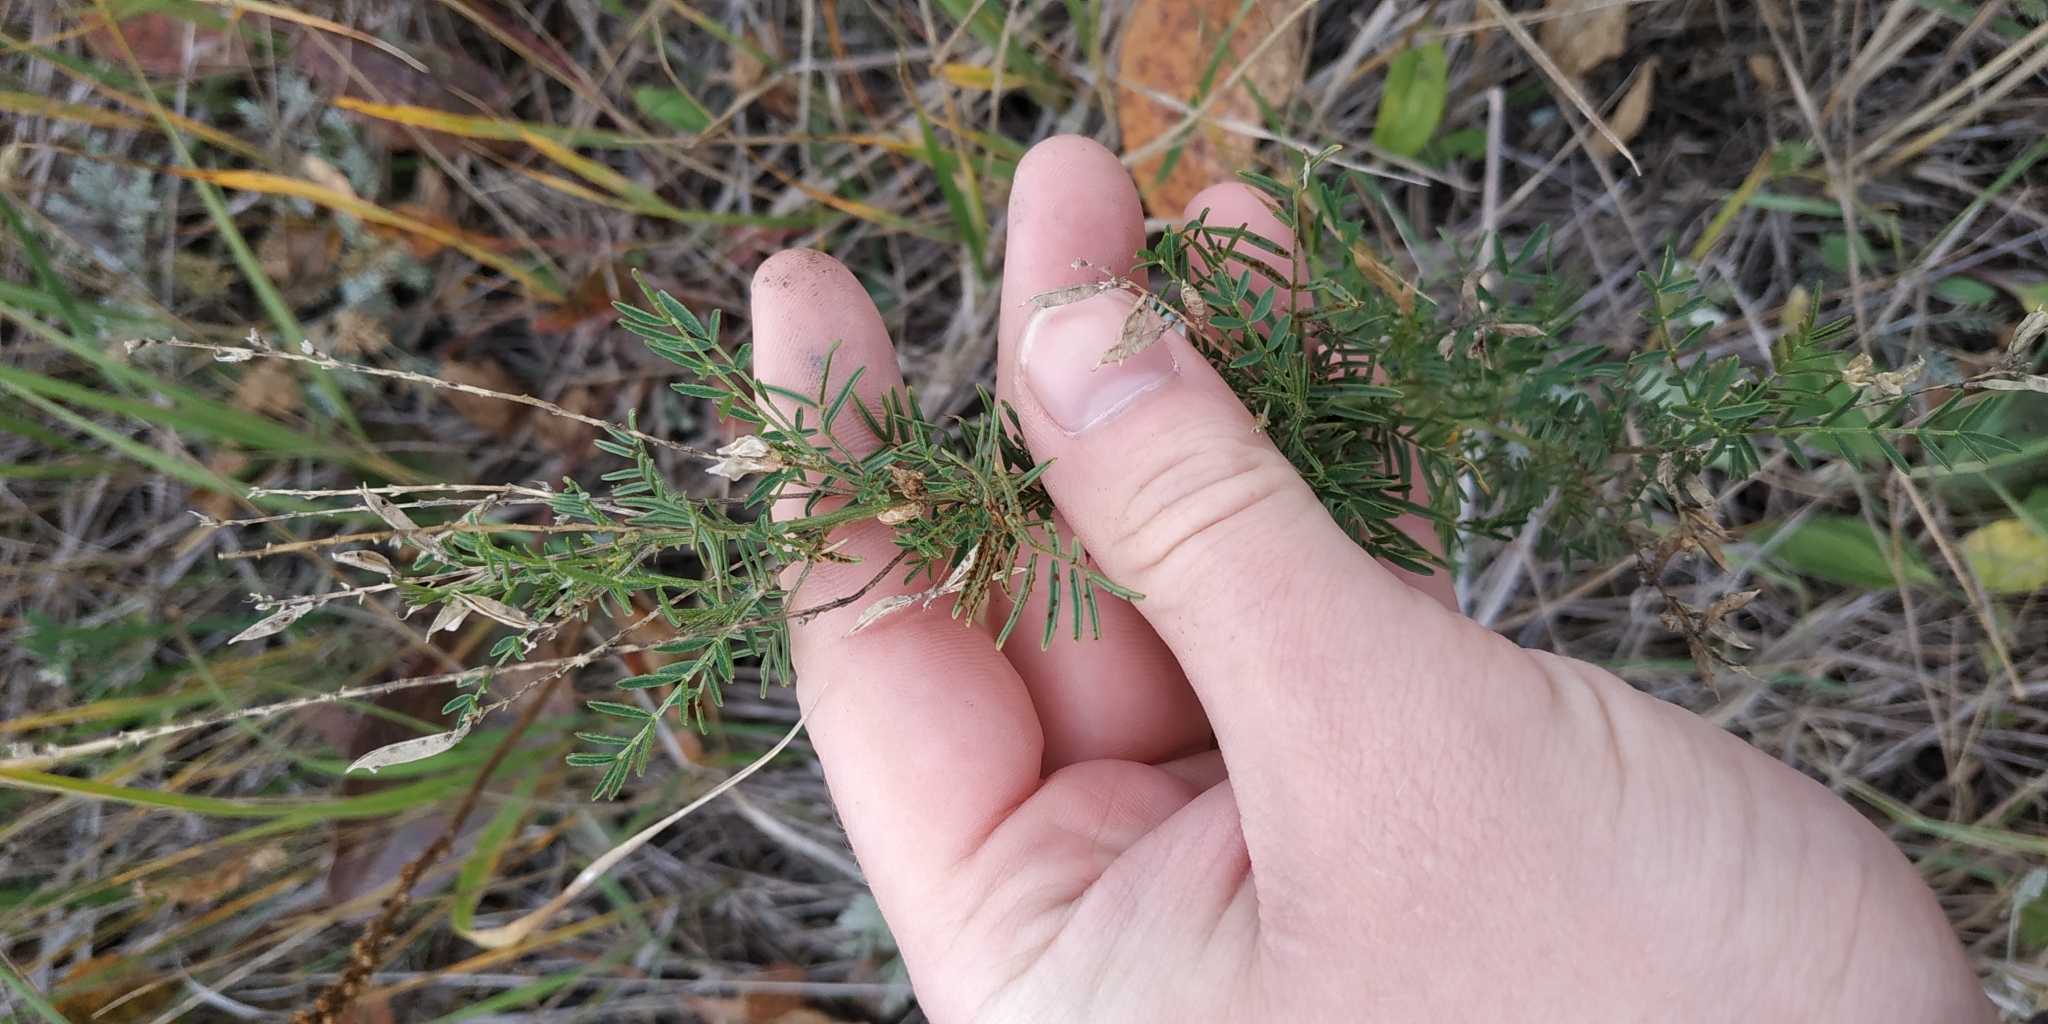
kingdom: Plantae
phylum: Tracheophyta
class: Magnoliopsida
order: Fabales
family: Fabaceae
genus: Astragalus
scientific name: Astragalus sulcatus
